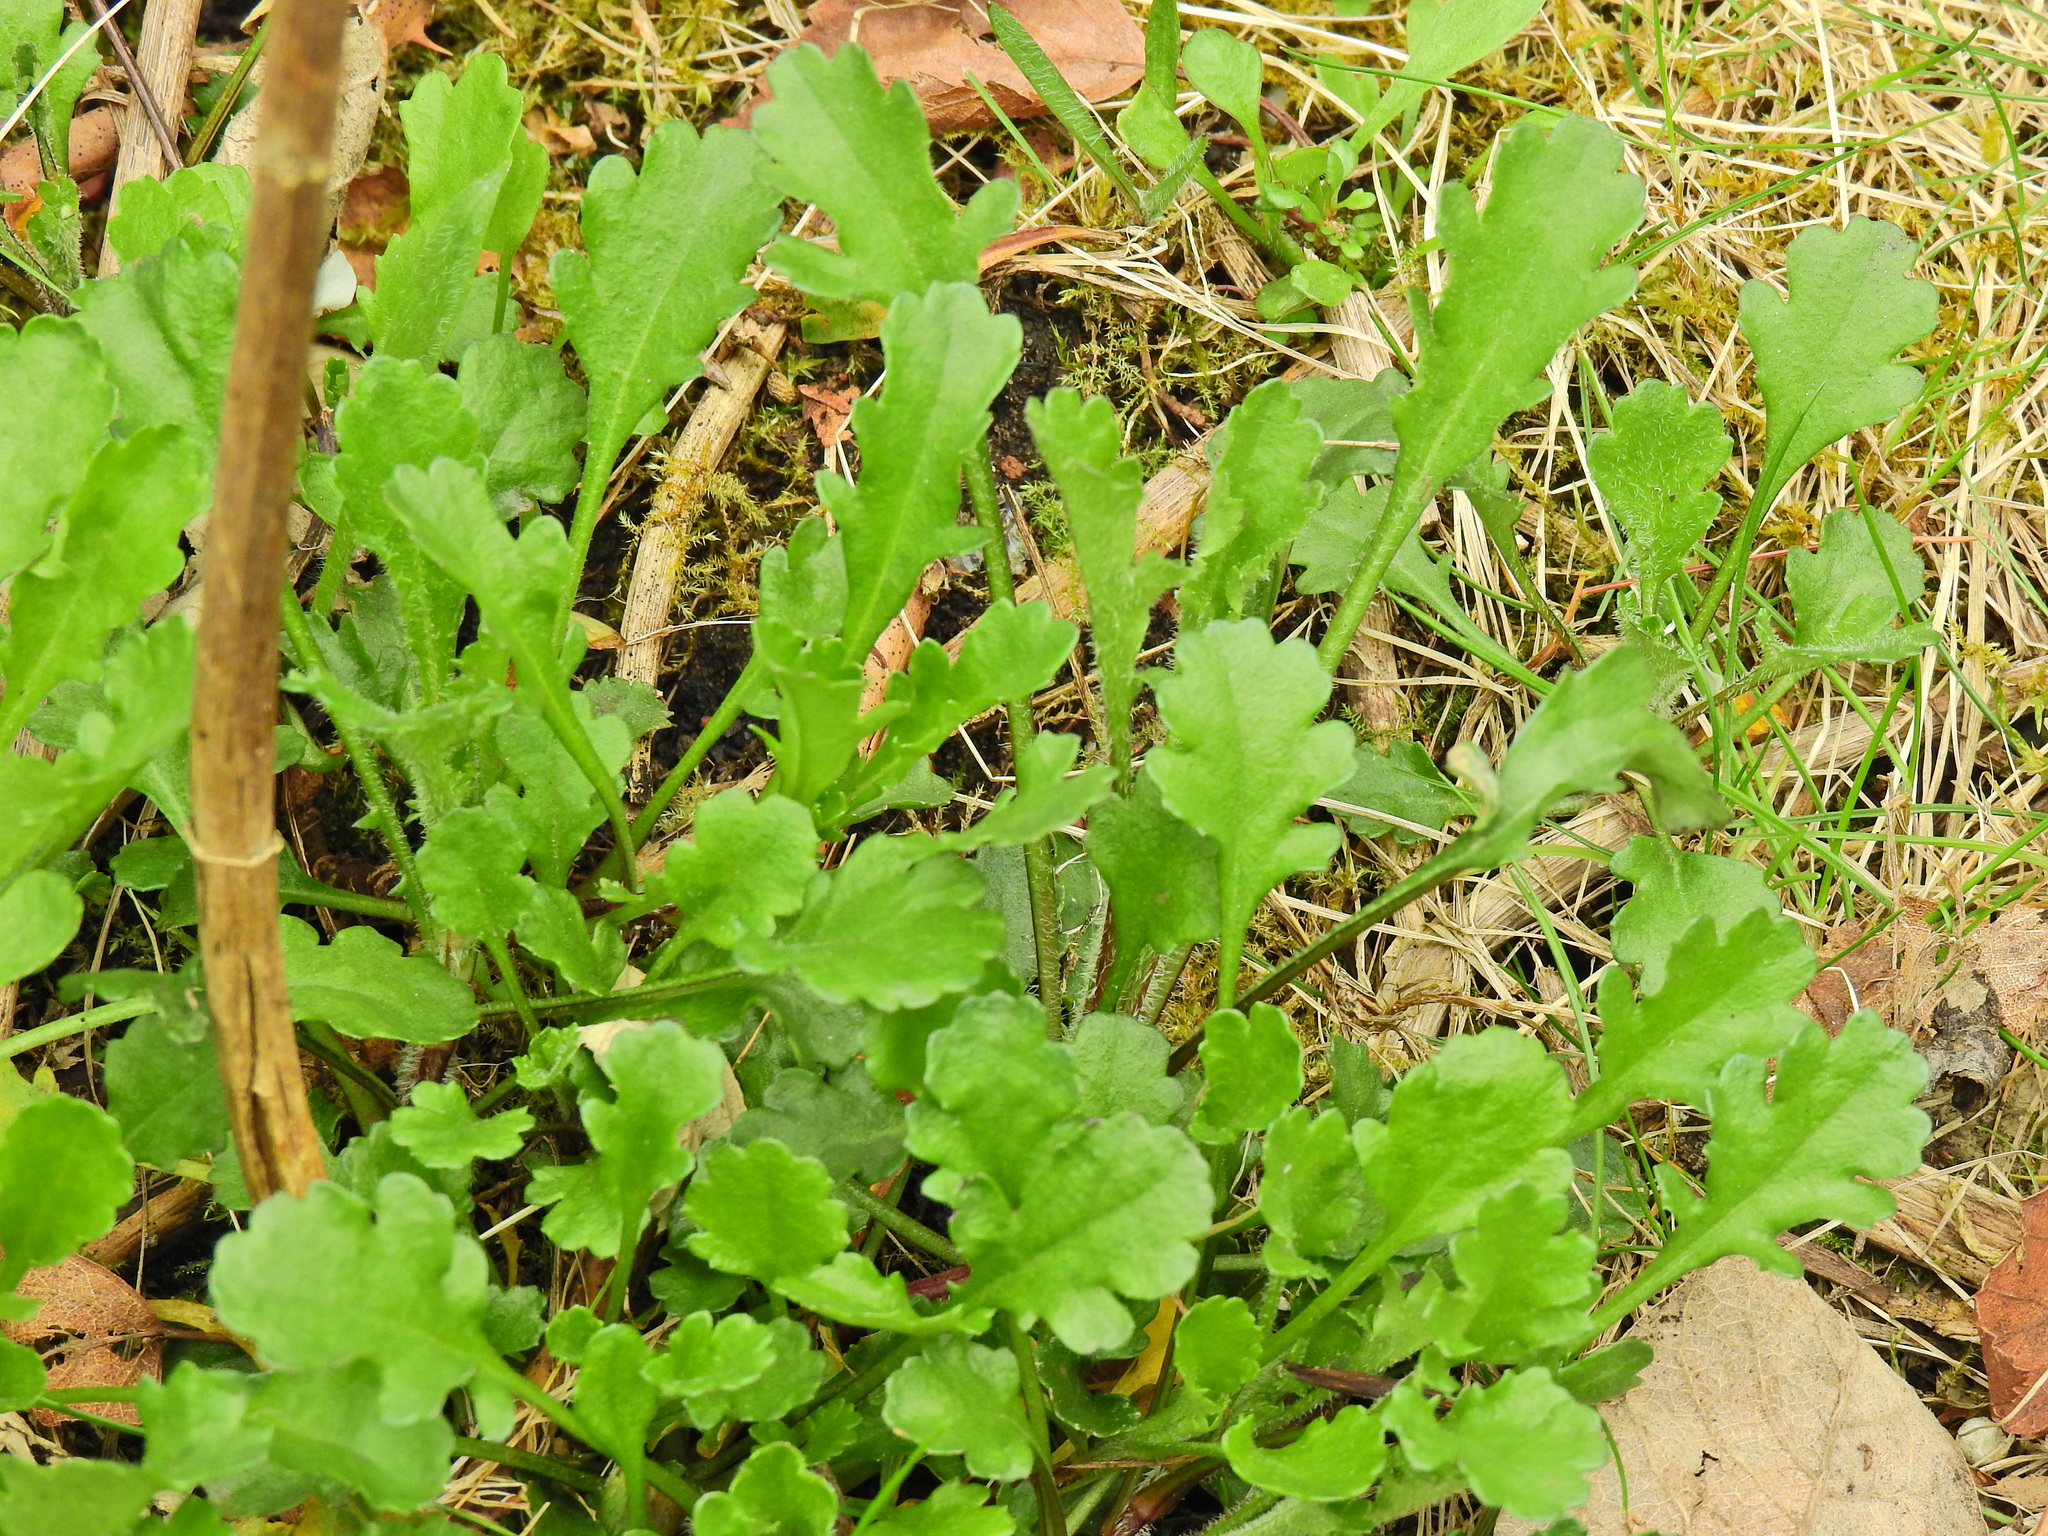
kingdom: Plantae
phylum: Tracheophyta
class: Magnoliopsida
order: Asterales
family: Asteraceae
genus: Leucanthemum
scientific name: Leucanthemum vulgare
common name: Oxeye daisy
